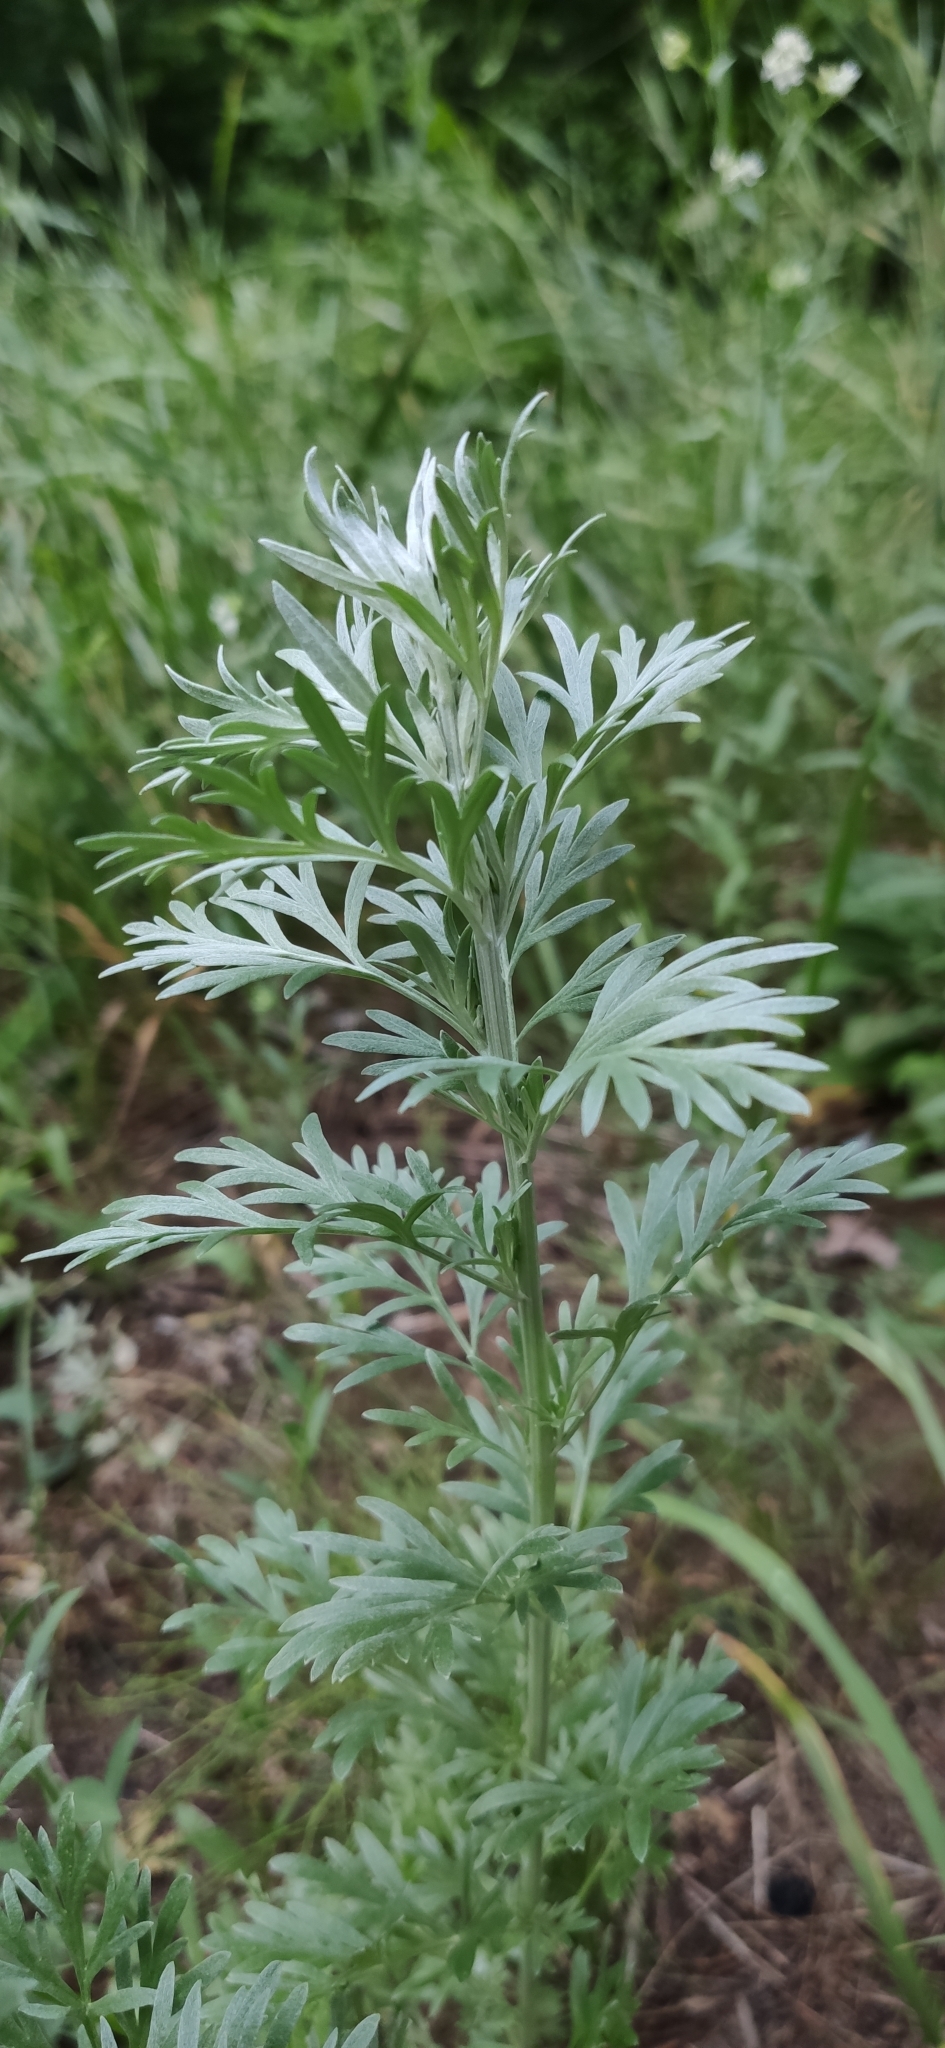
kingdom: Plantae
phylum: Tracheophyta
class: Magnoliopsida
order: Asterales
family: Asteraceae
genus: Artemisia
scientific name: Artemisia absinthium
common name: Wormwood
